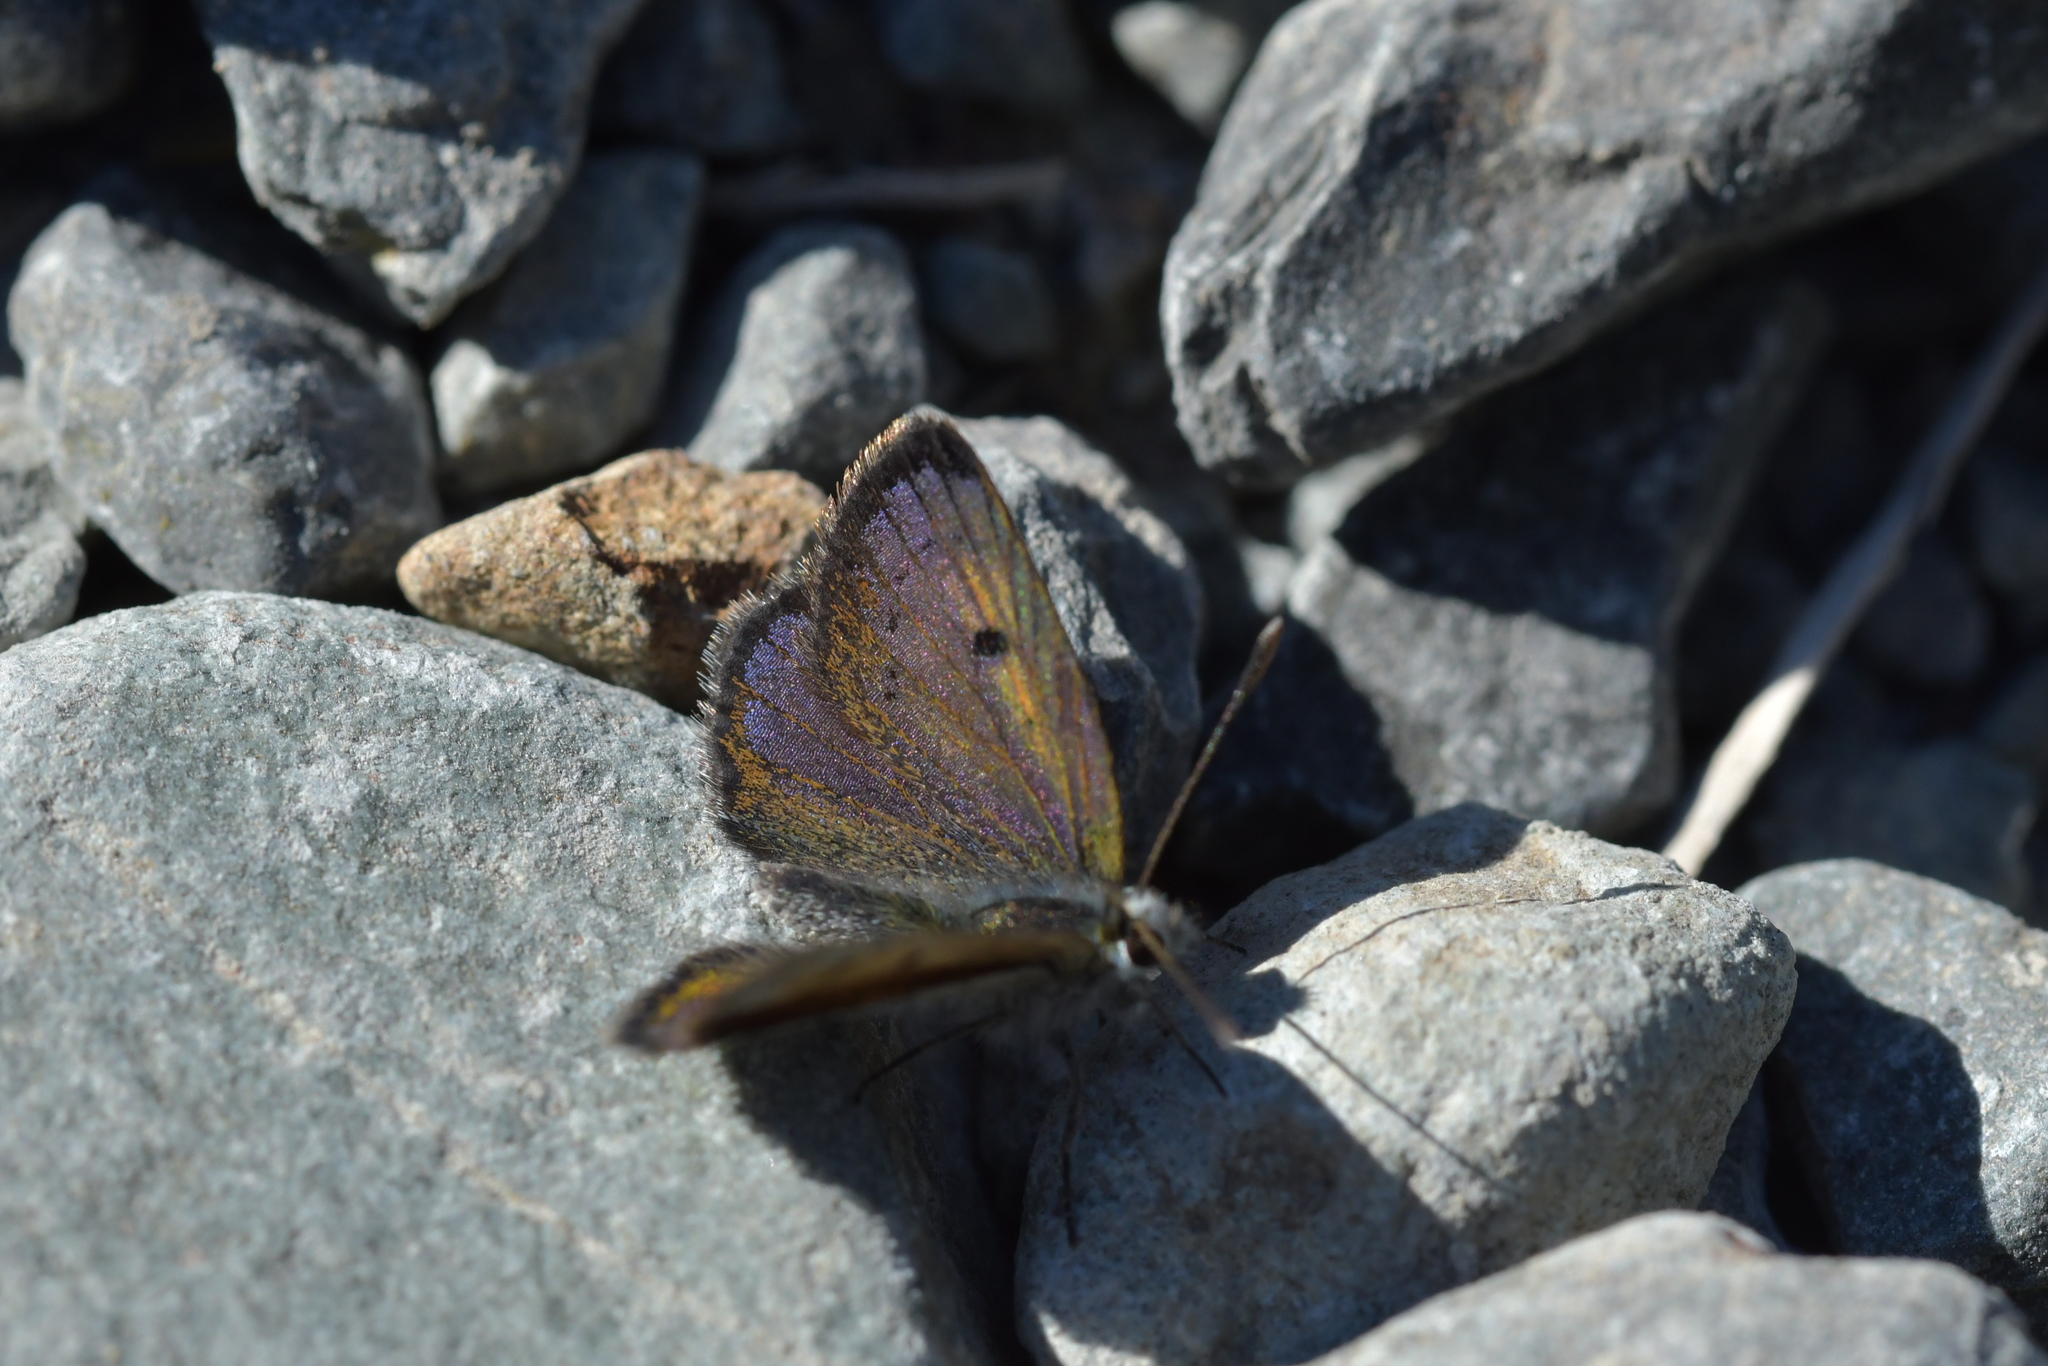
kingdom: Animalia
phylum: Arthropoda
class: Insecta
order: Lepidoptera
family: Lycaenidae
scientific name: Lycaenidae
